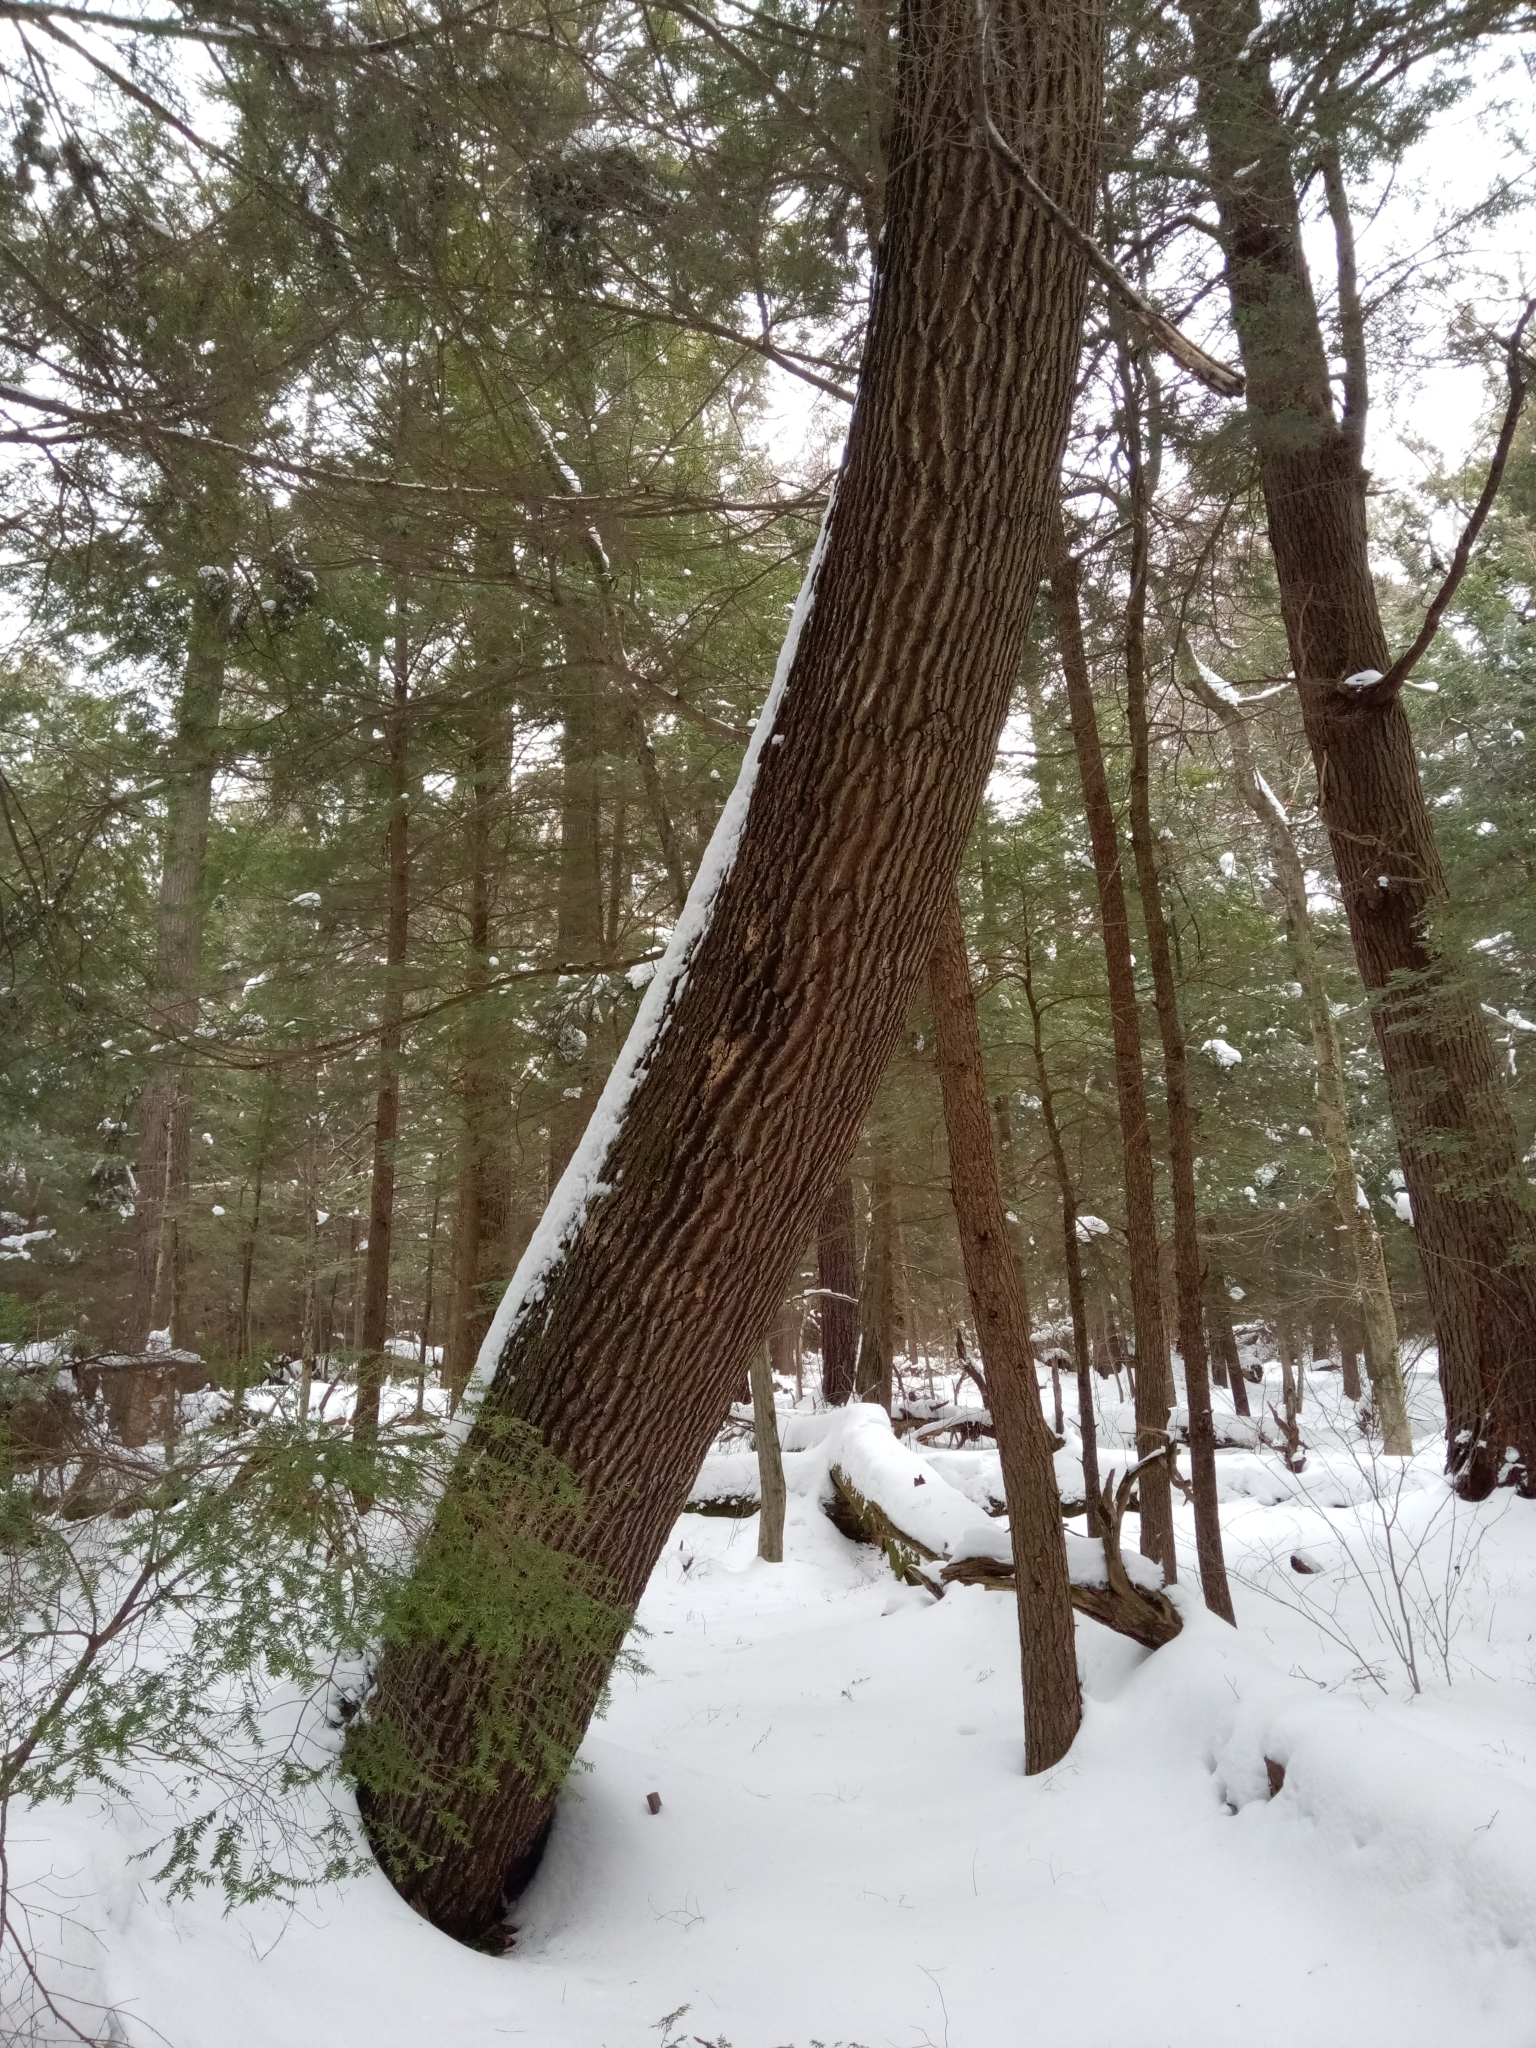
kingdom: Plantae
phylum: Tracheophyta
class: Magnoliopsida
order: Fagales
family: Fagaceae
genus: Quercus
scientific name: Quercus rubra
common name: Red oak
